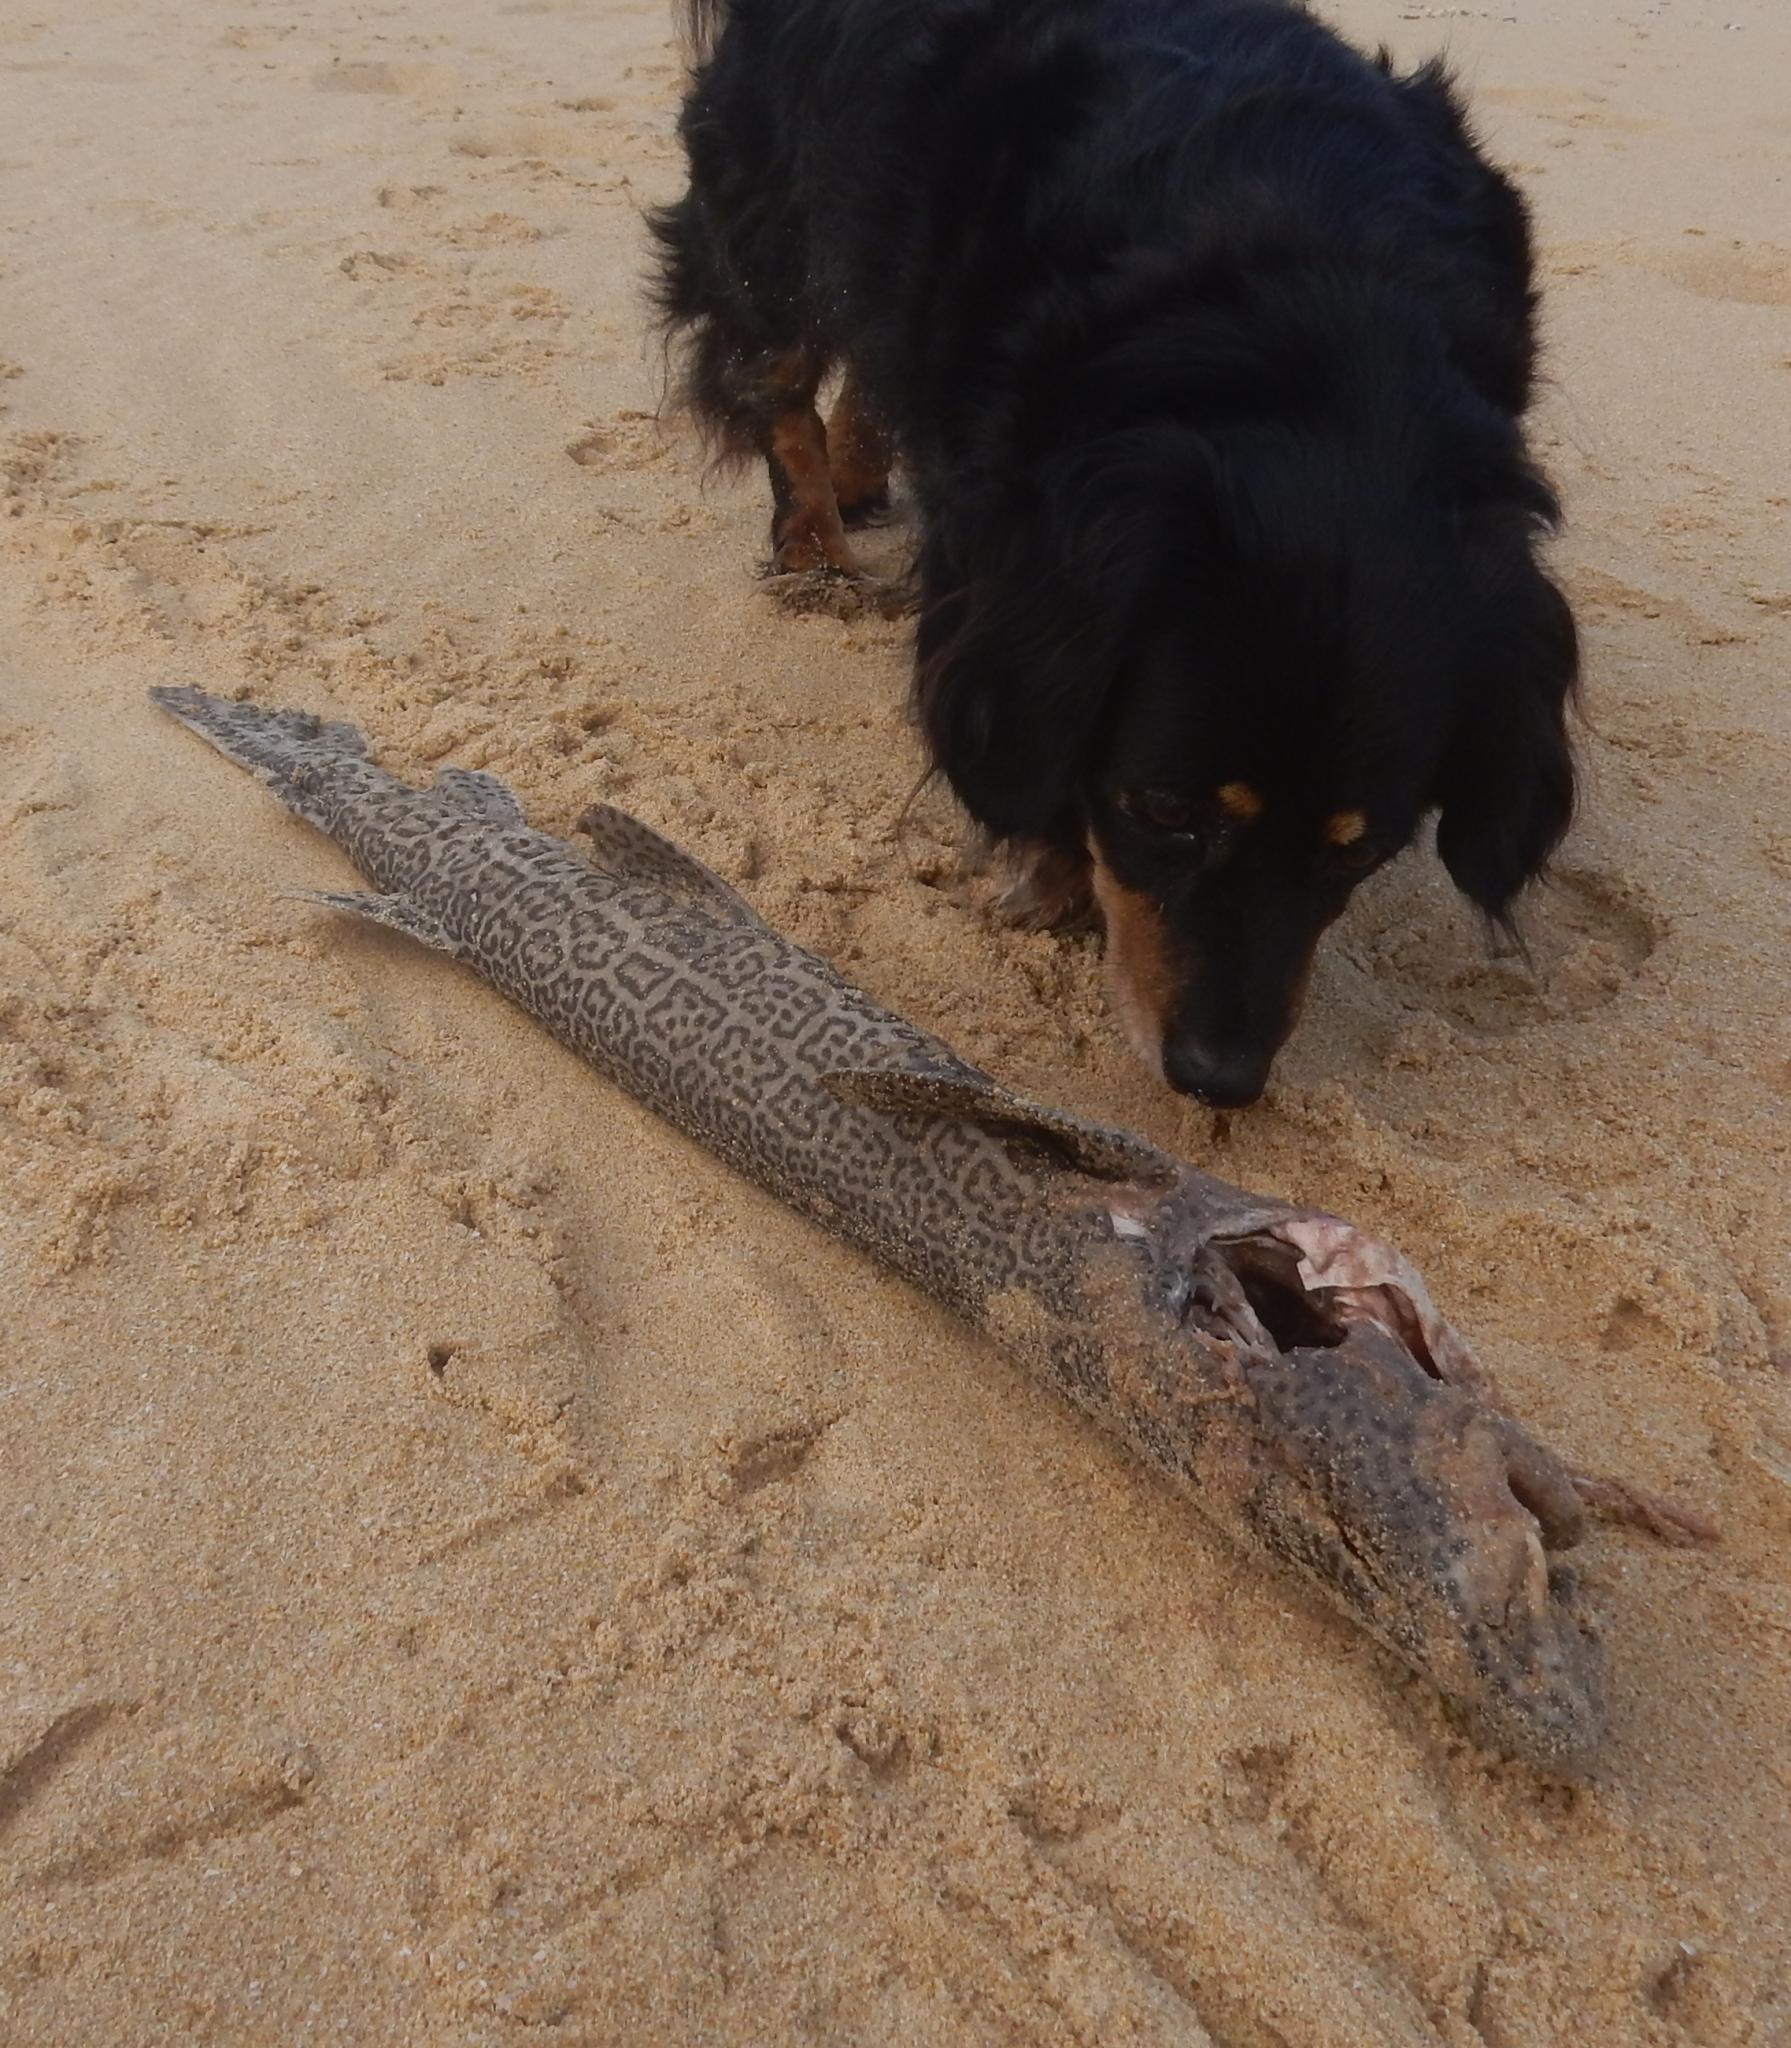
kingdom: Animalia
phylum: Chordata
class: Elasmobranchii
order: Carcharhiniformes
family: Scyliorhinidae
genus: Poroderma
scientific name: Poroderma pantherinum
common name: Leopard catshark
